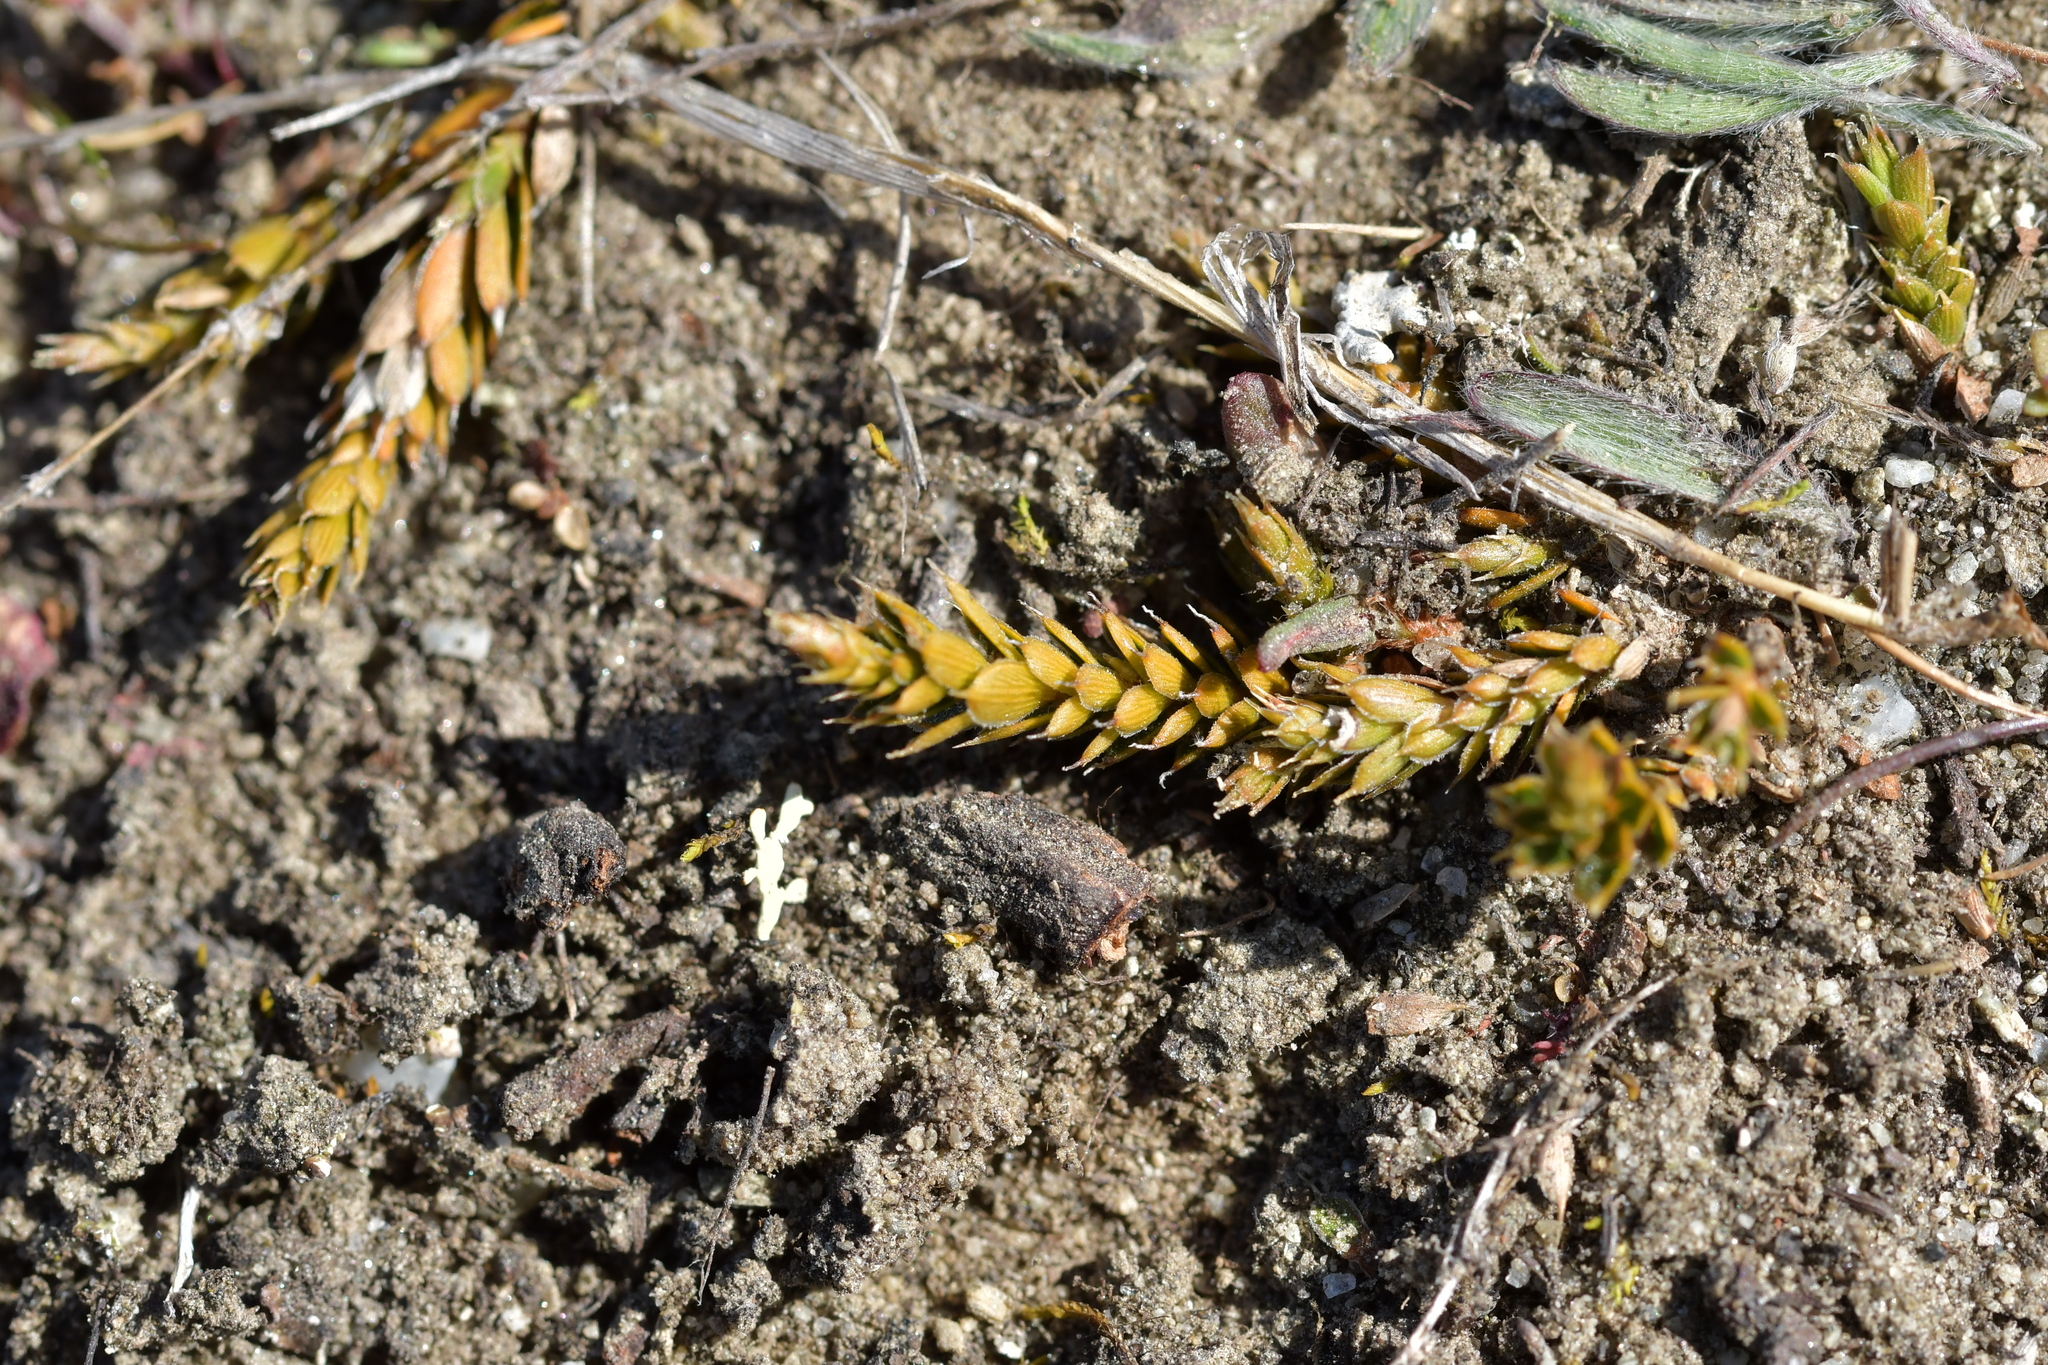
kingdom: Plantae
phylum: Tracheophyta
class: Magnoliopsida
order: Ericales
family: Ericaceae
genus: Styphelia
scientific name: Styphelia nesophila
